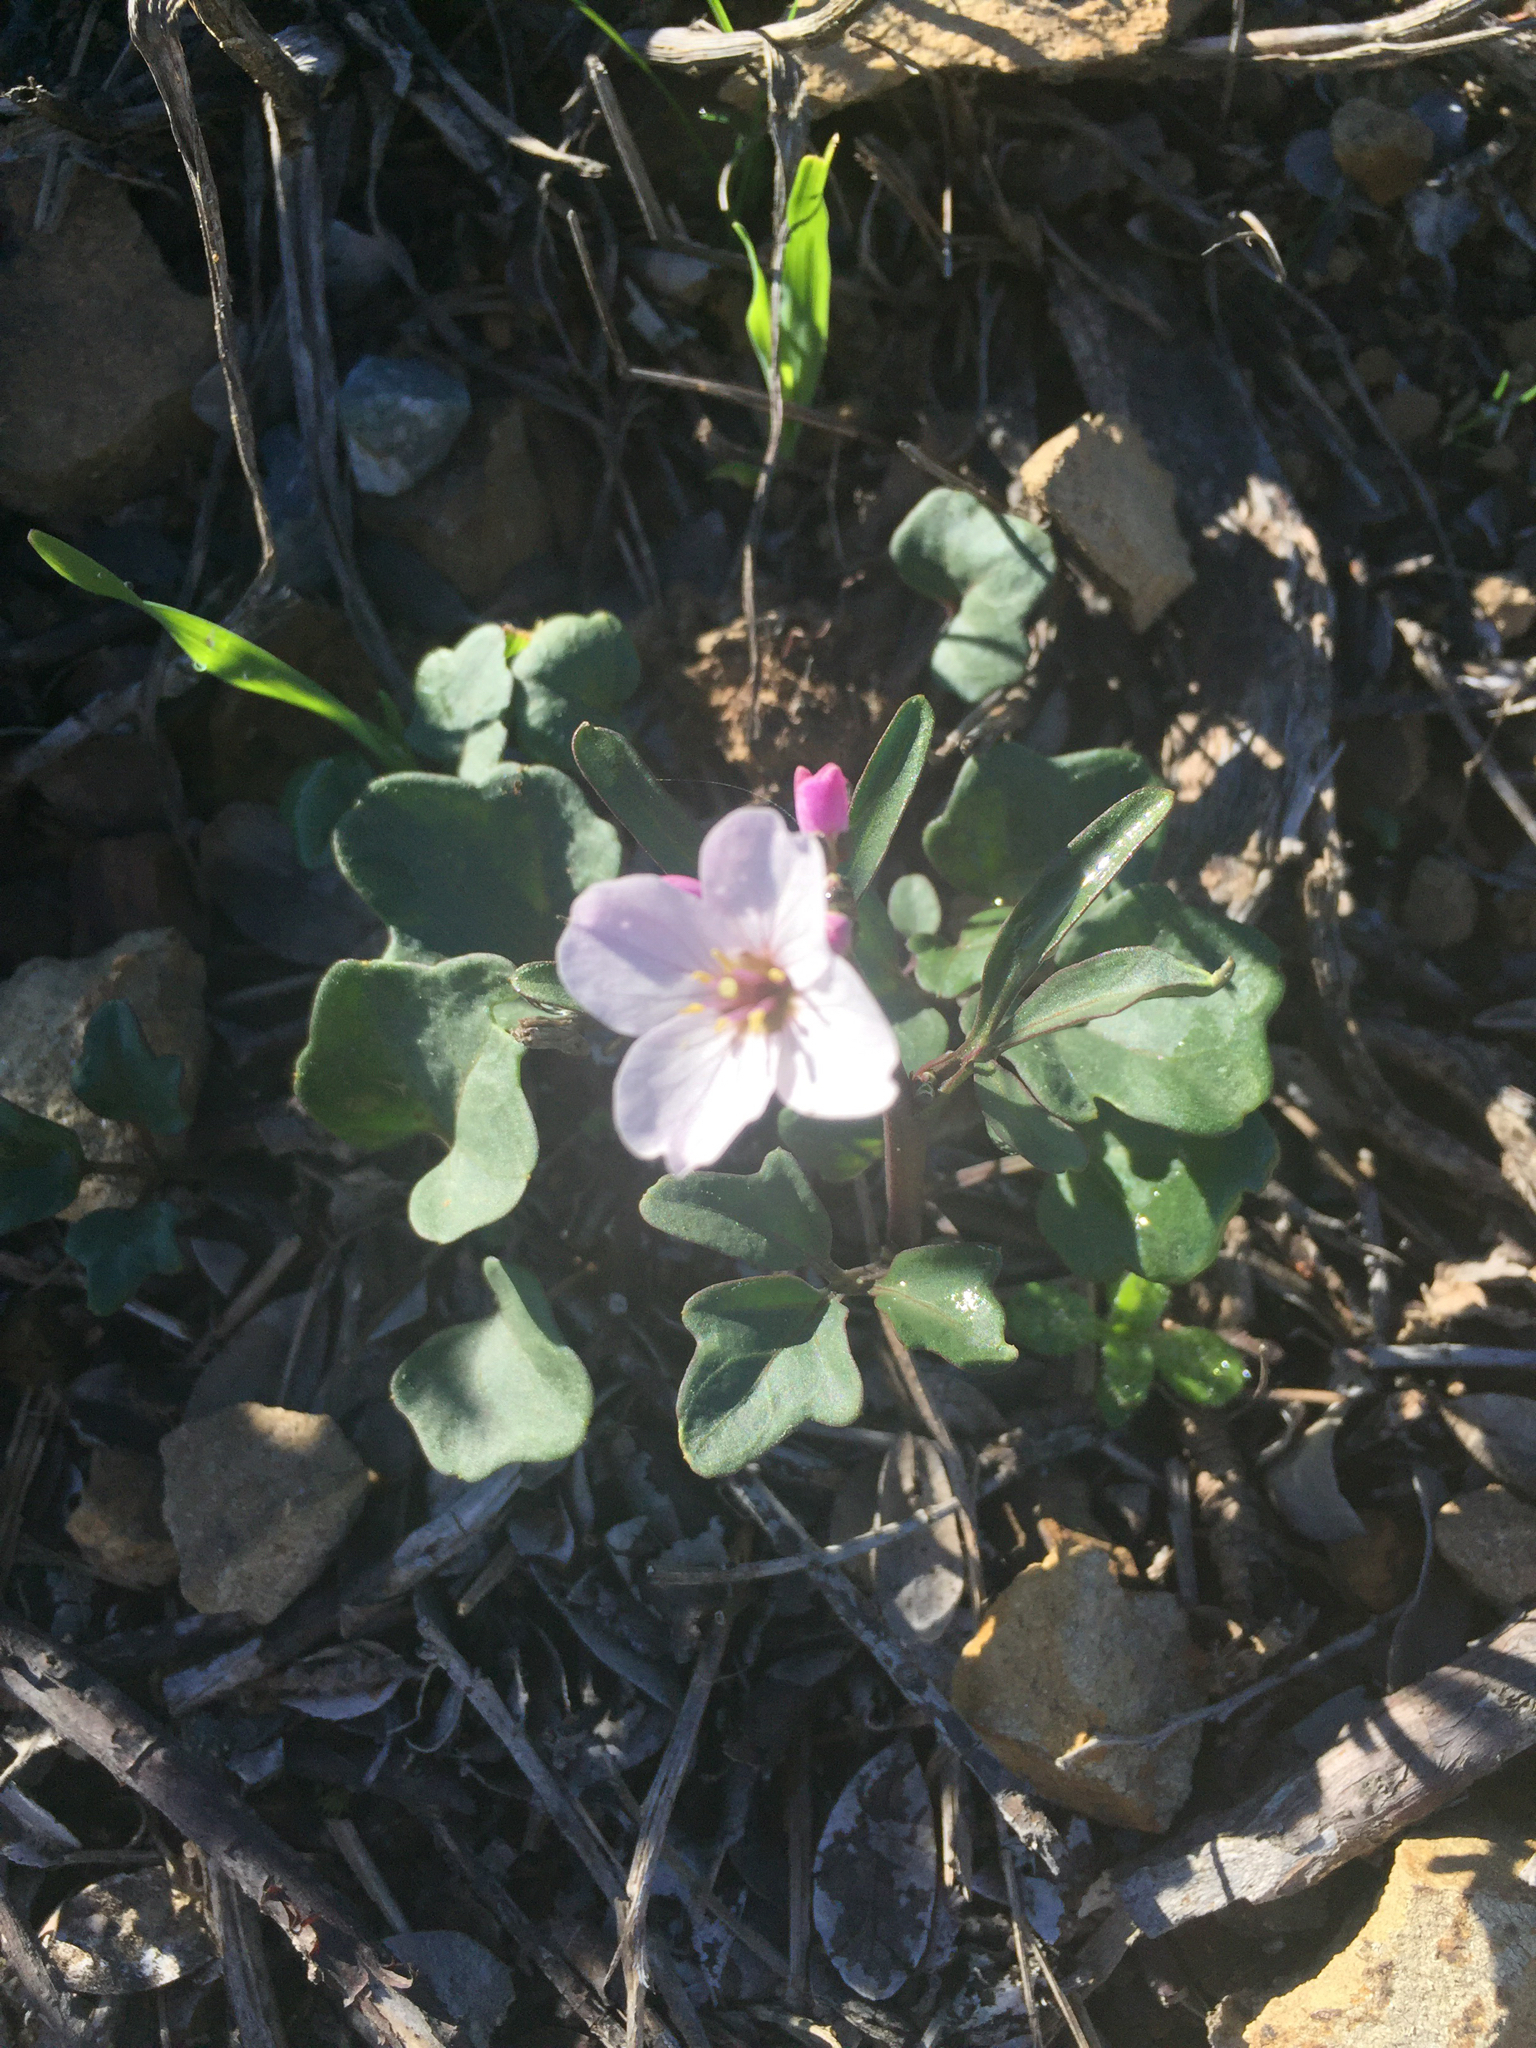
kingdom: Plantae
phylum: Tracheophyta
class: Magnoliopsida
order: Brassicales
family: Brassicaceae
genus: Cardamine
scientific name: Cardamine californica
